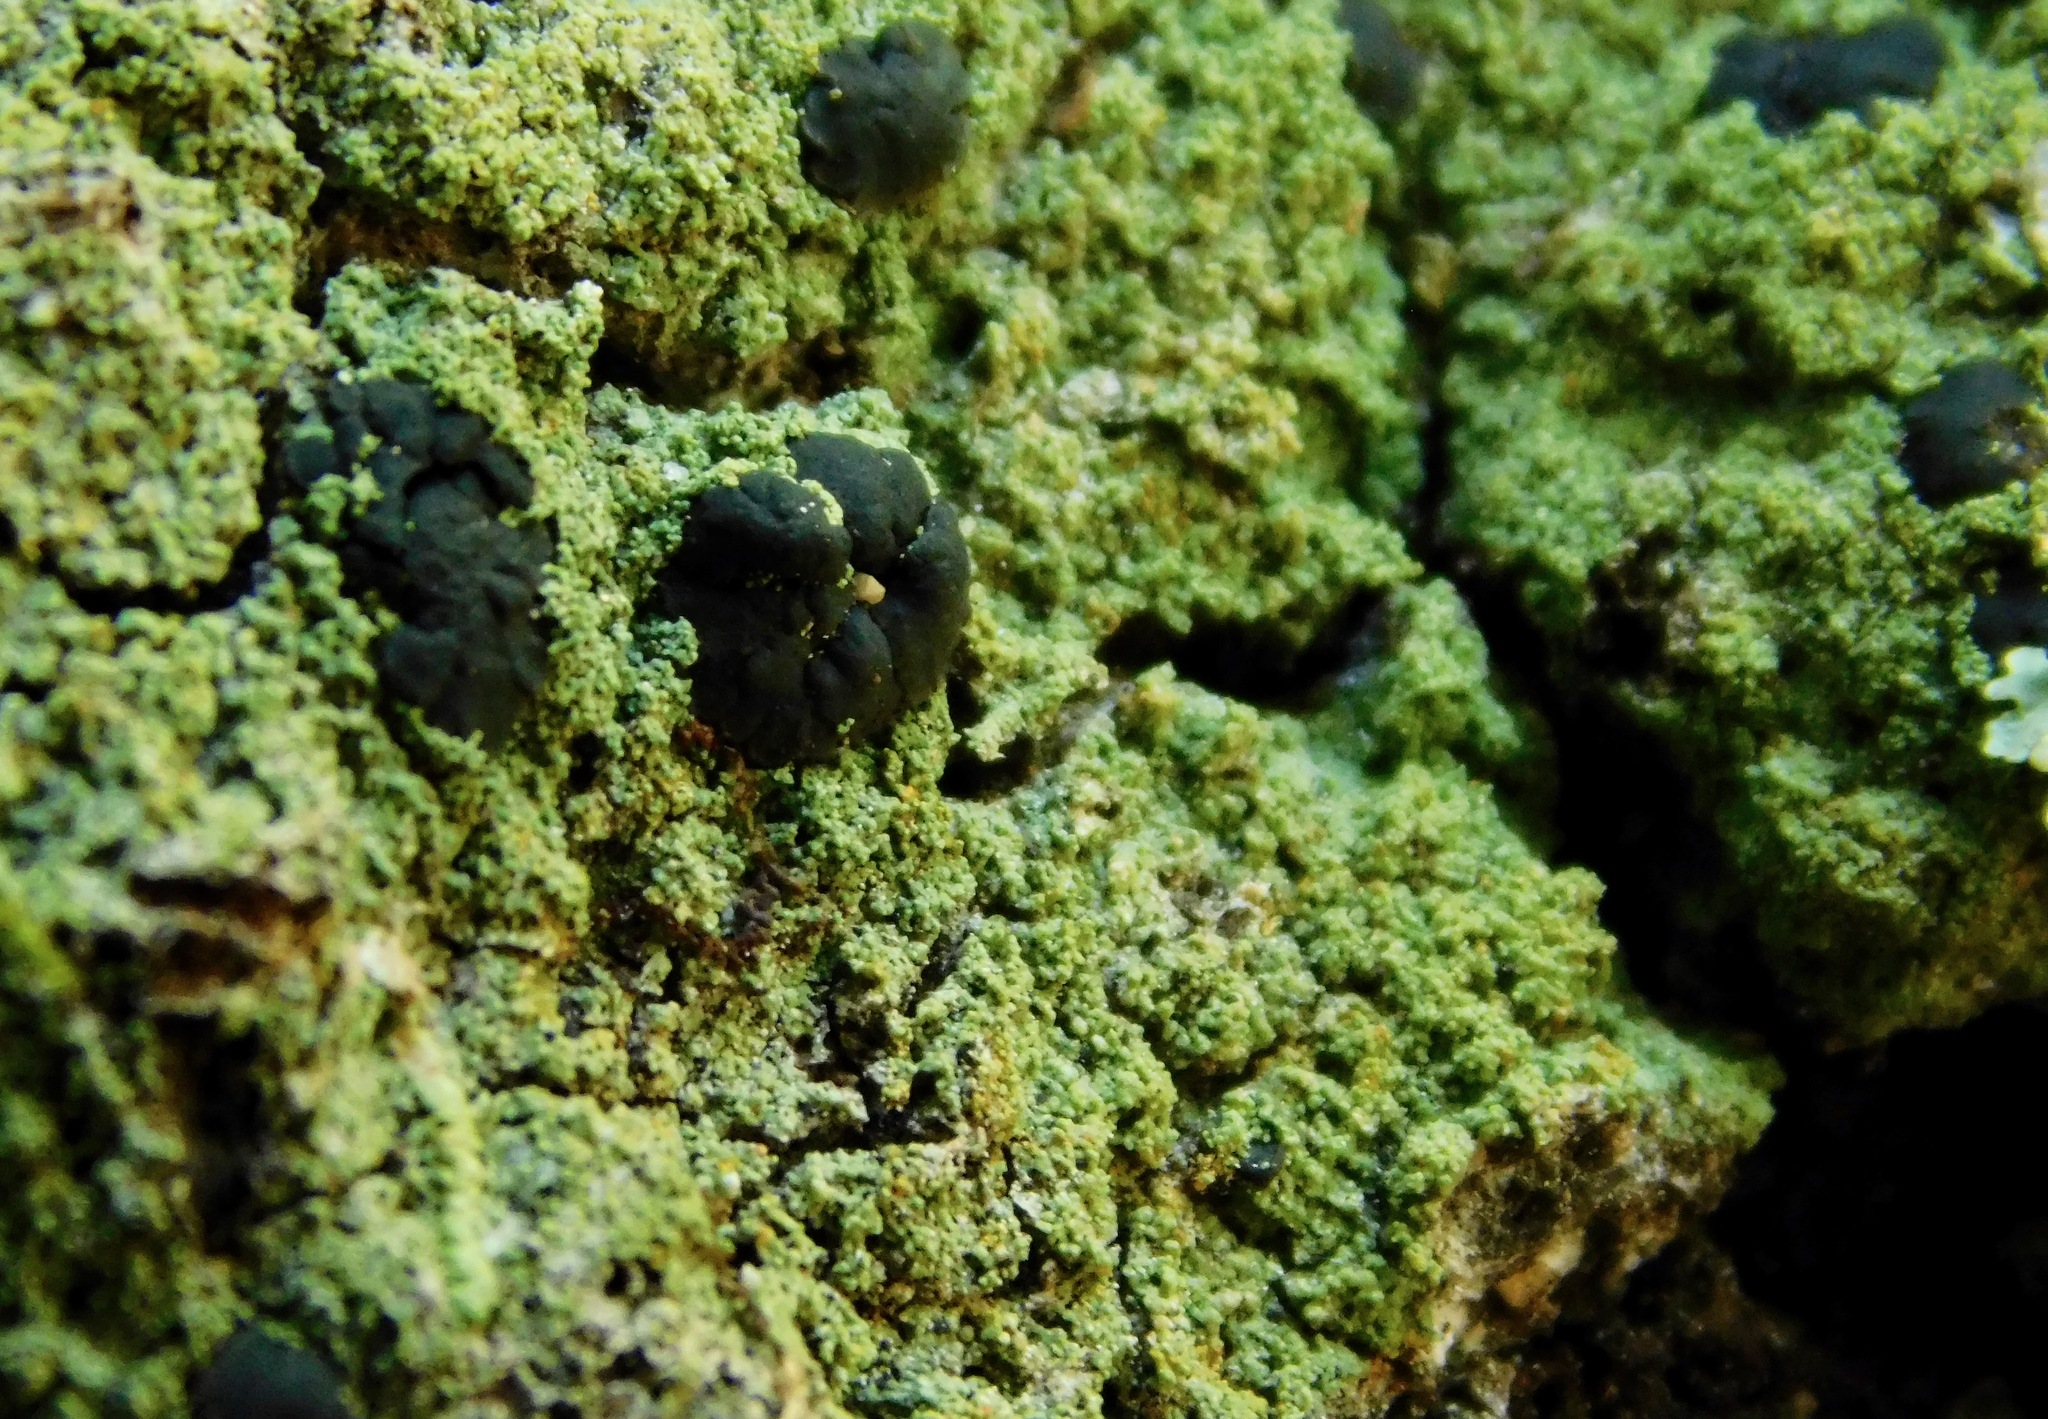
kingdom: Fungi
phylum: Ascomycota
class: Lecanoromycetes
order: Lecanorales
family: Ramalinaceae
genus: Bacidia
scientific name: Bacidia schweinitzii
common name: Surprise lichen
